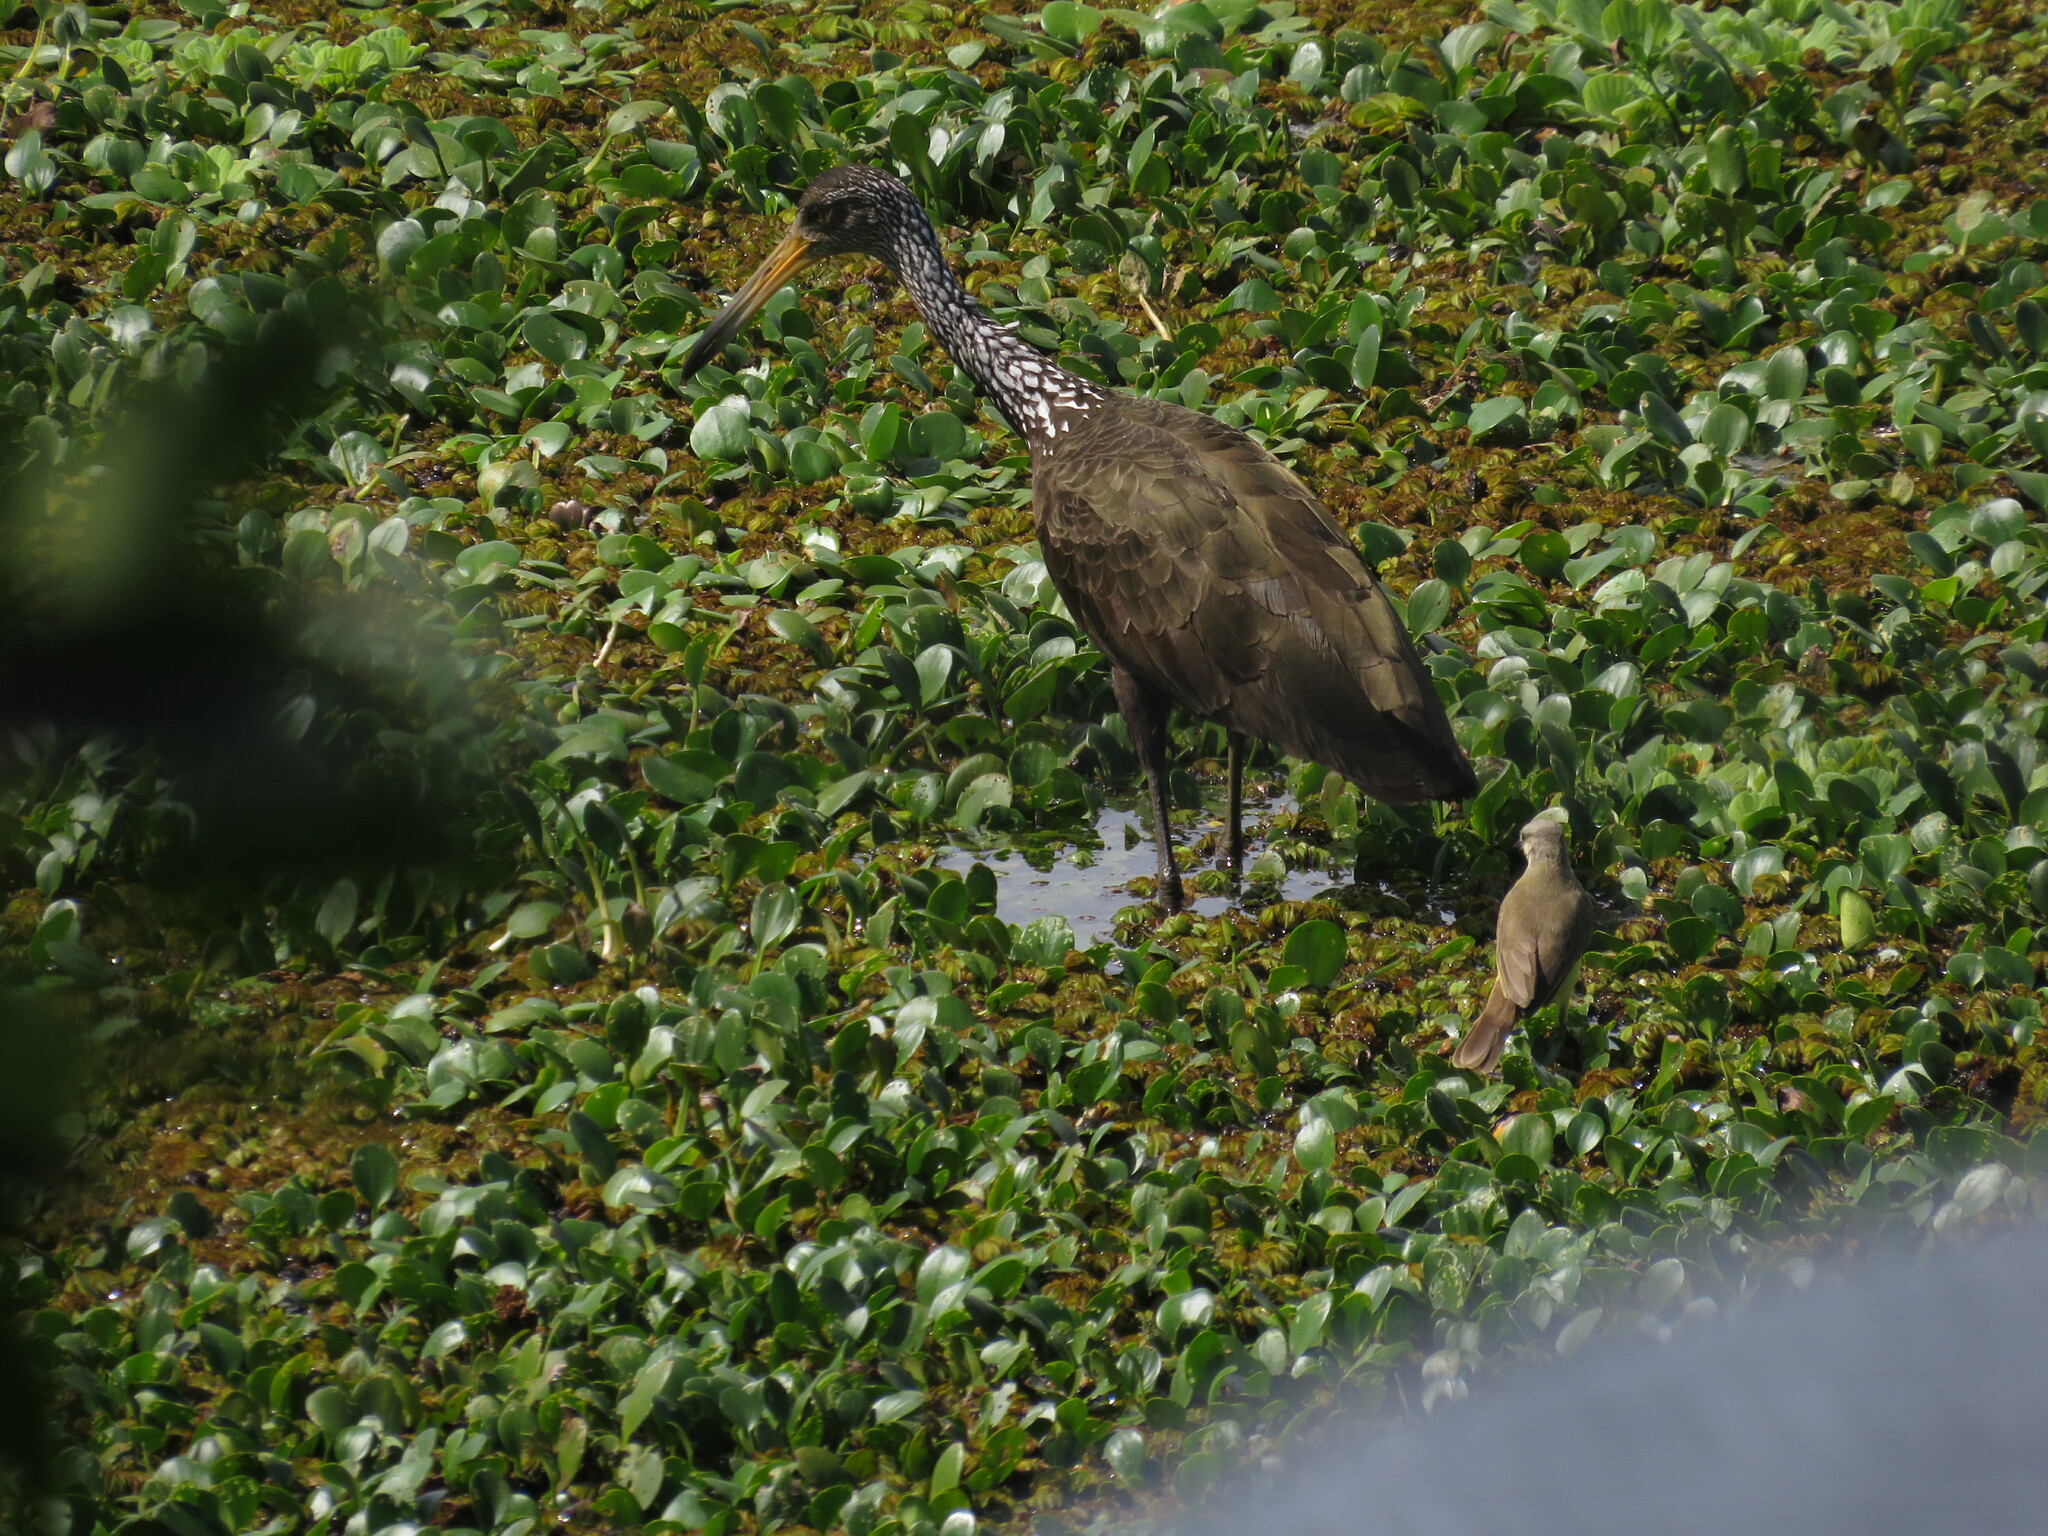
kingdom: Animalia
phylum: Chordata
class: Aves
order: Gruiformes
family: Aramidae
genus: Aramus
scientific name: Aramus guarauna
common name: Limpkin
